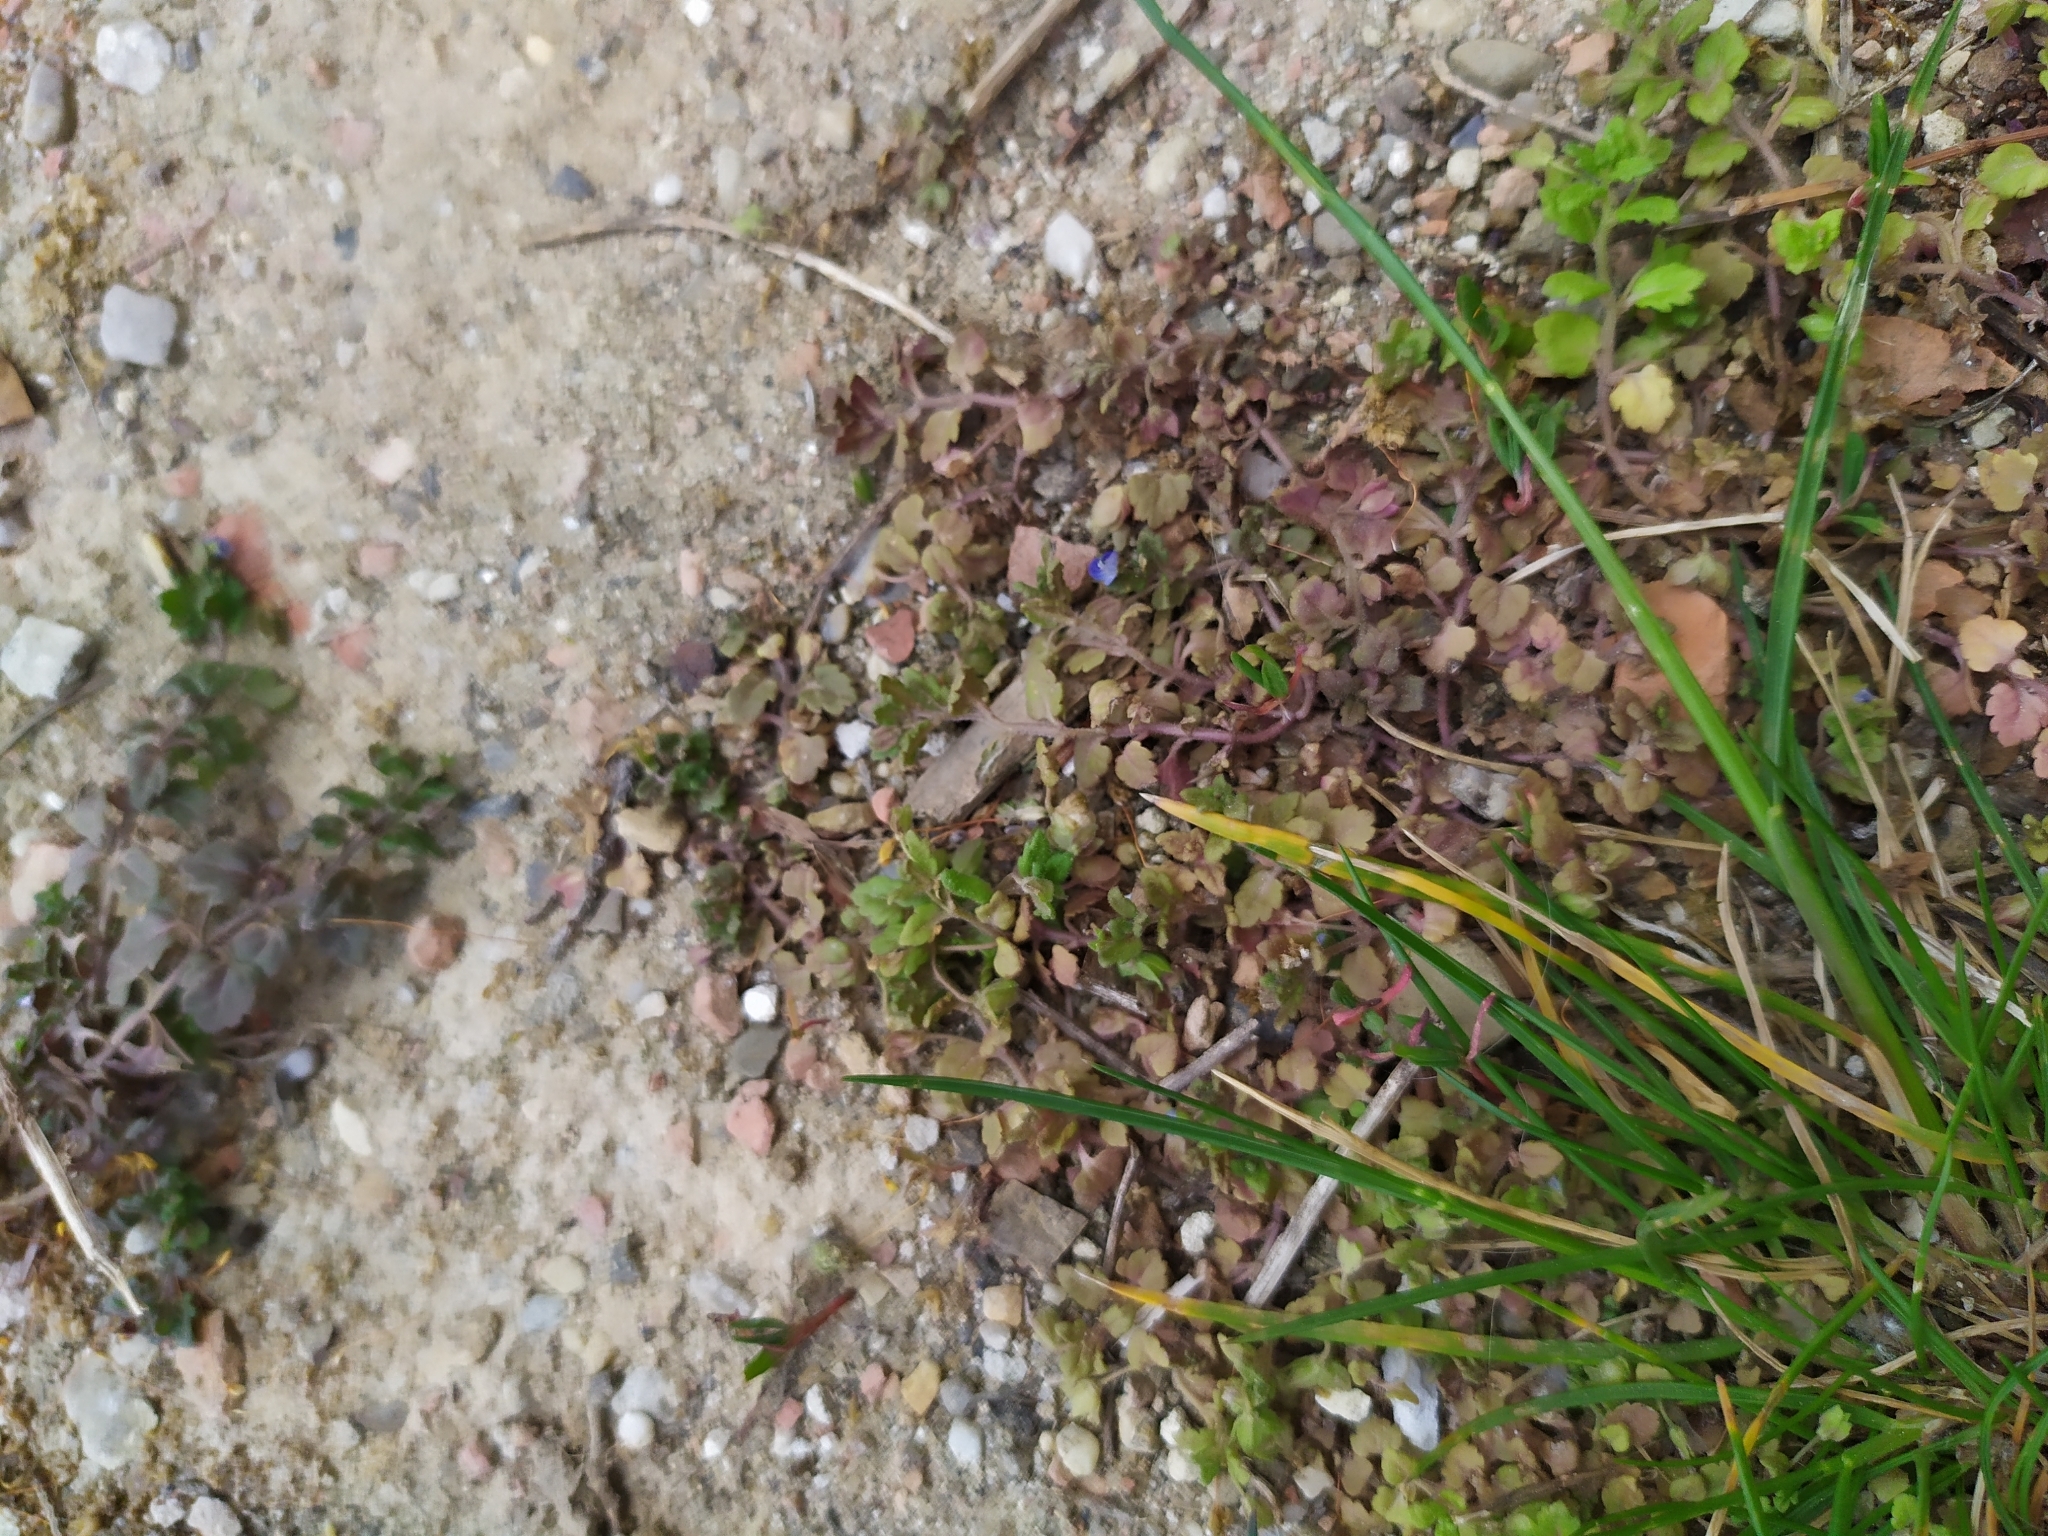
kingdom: Plantae
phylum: Tracheophyta
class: Magnoliopsida
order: Lamiales
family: Plantaginaceae
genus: Veronica
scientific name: Veronica polita
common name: Grey field-speedwell
